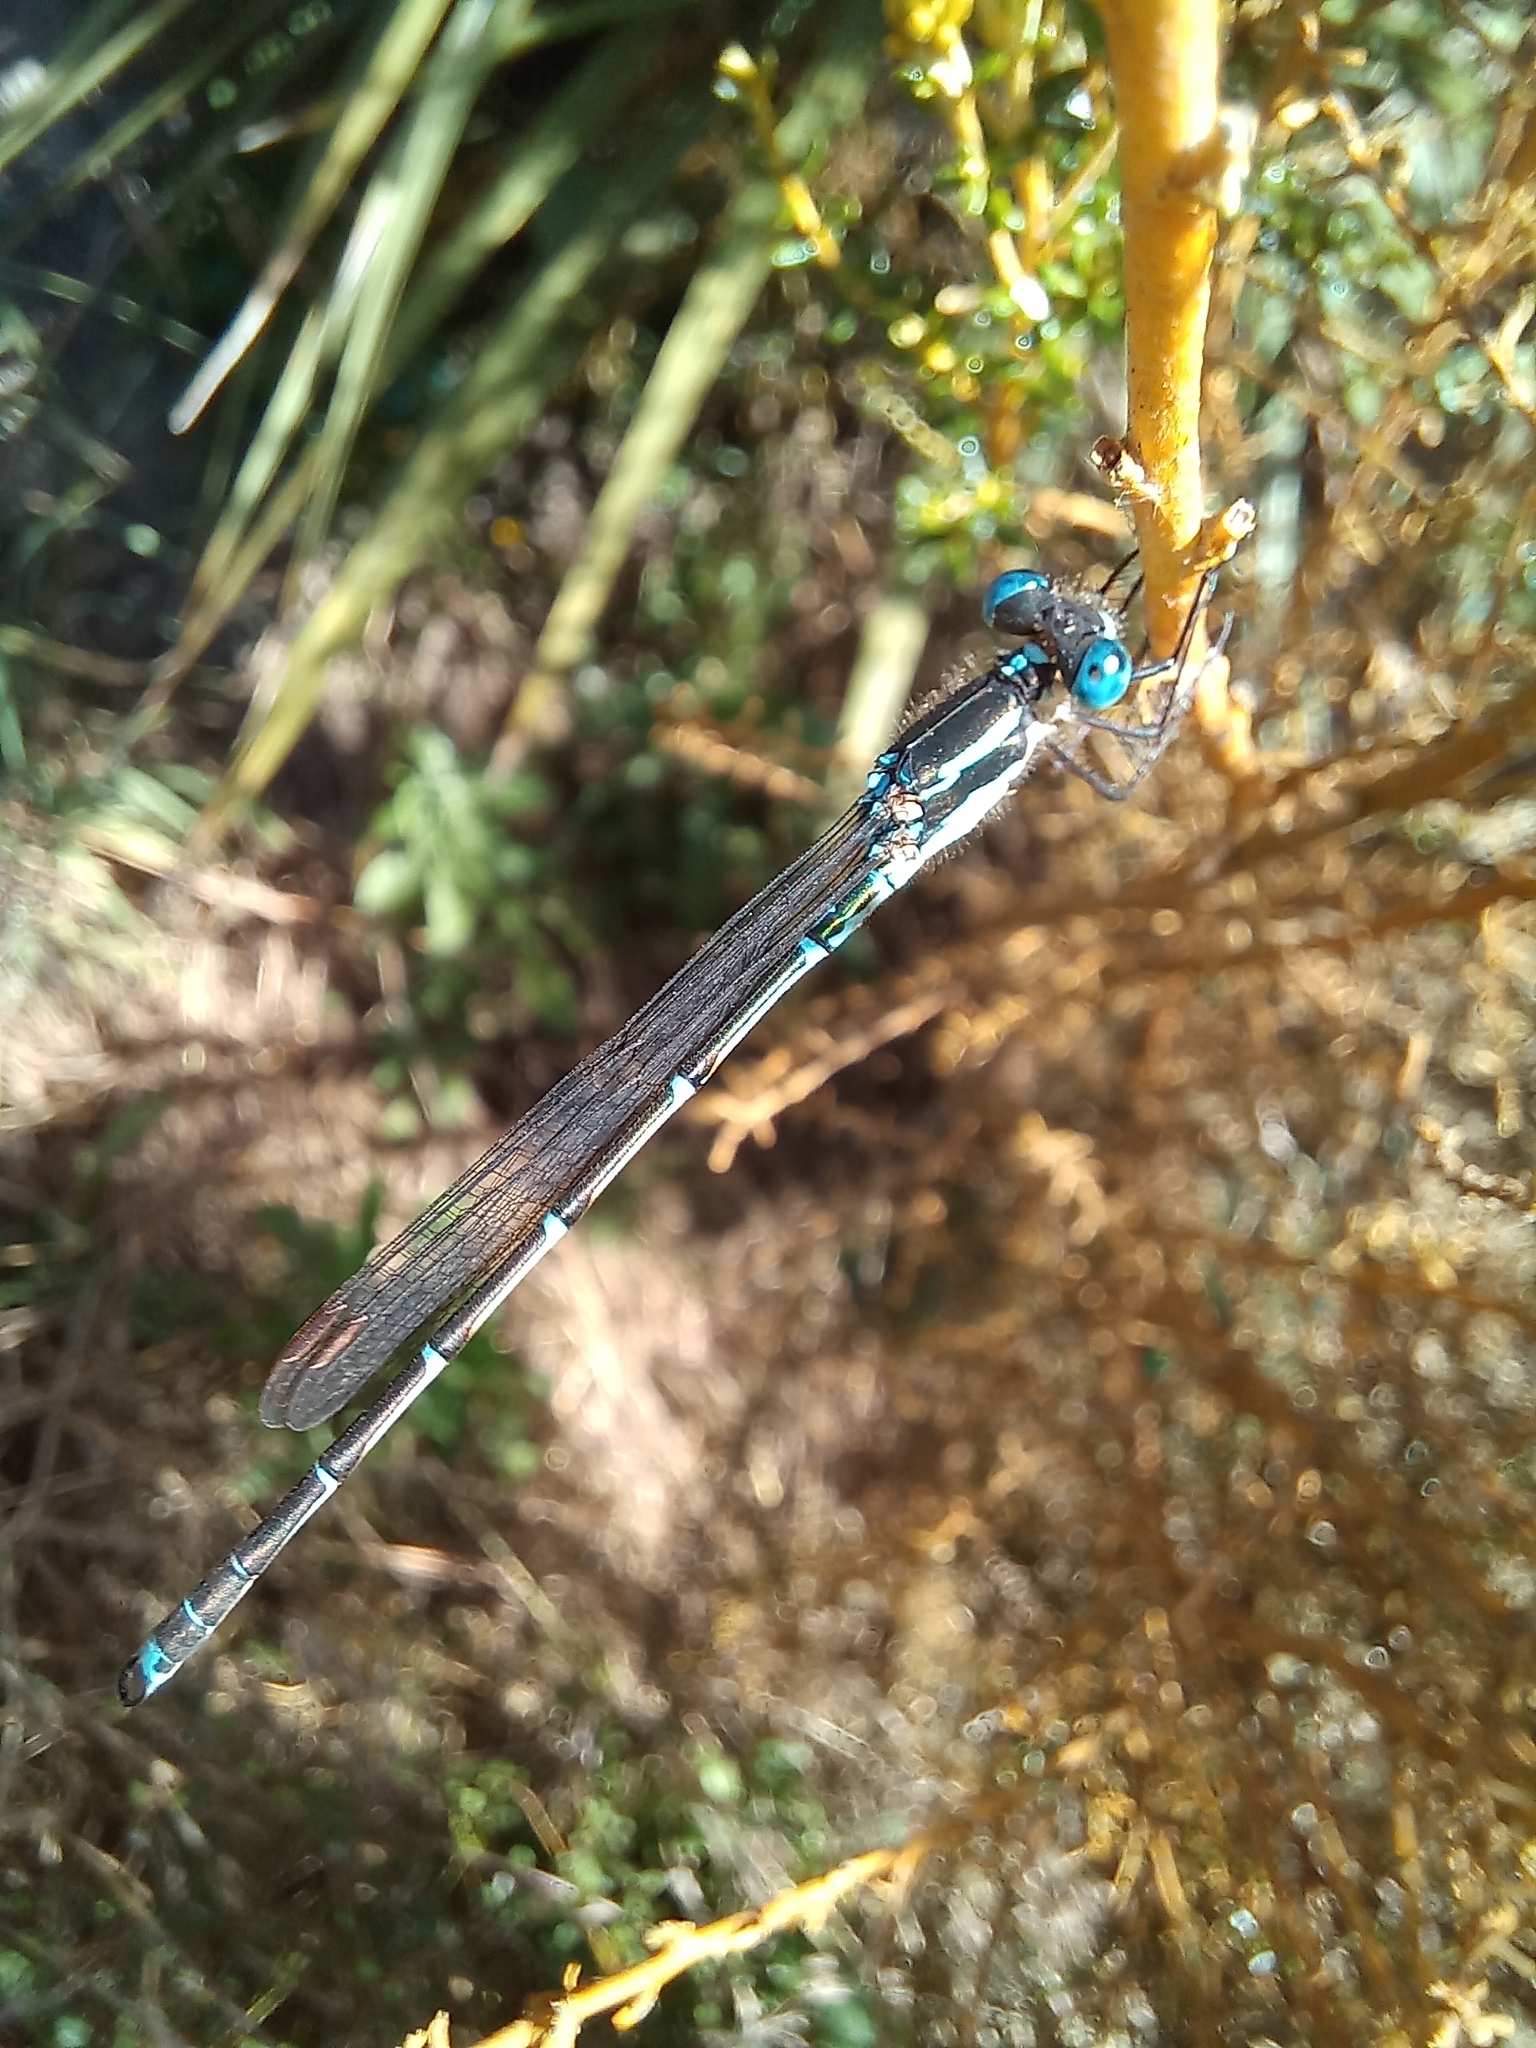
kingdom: Animalia
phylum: Arthropoda
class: Insecta
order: Odonata
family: Lestidae
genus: Austrolestes
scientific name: Austrolestes colensonis
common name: Blue damselfly
